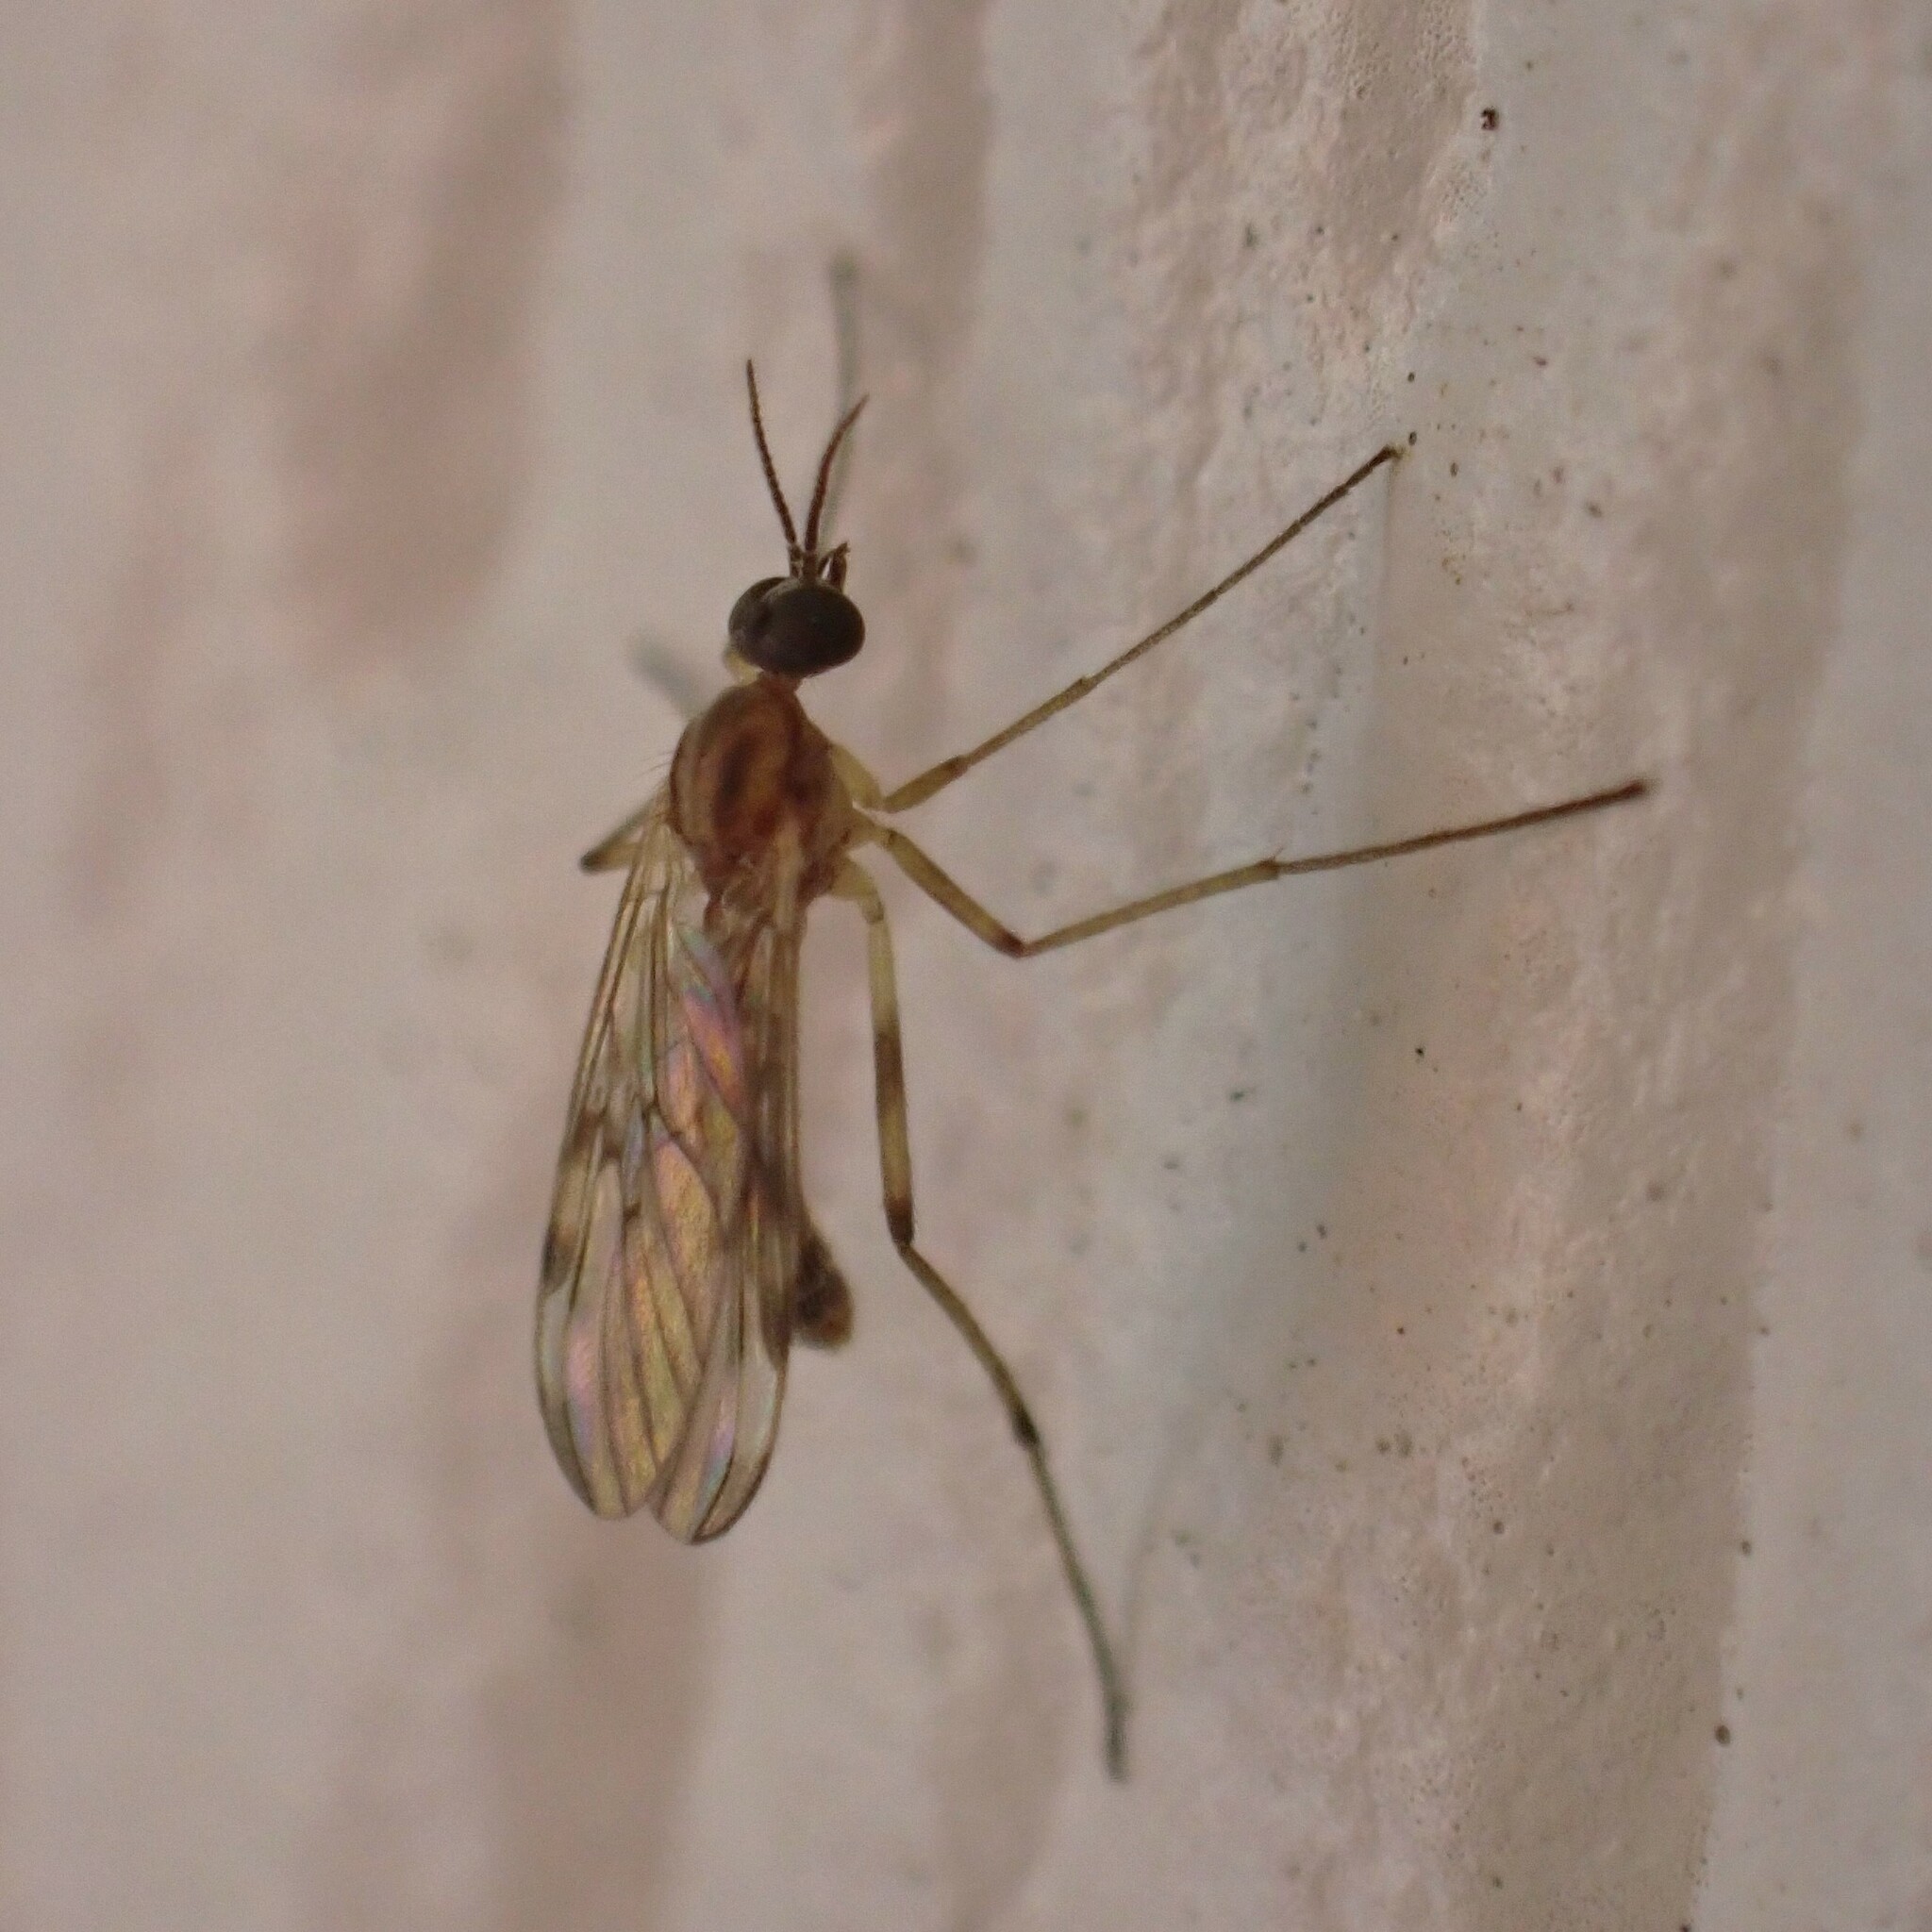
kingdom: Animalia
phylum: Arthropoda
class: Insecta
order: Diptera
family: Anisopodidae
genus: Sylvicola
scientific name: Sylvicola fuscatus
